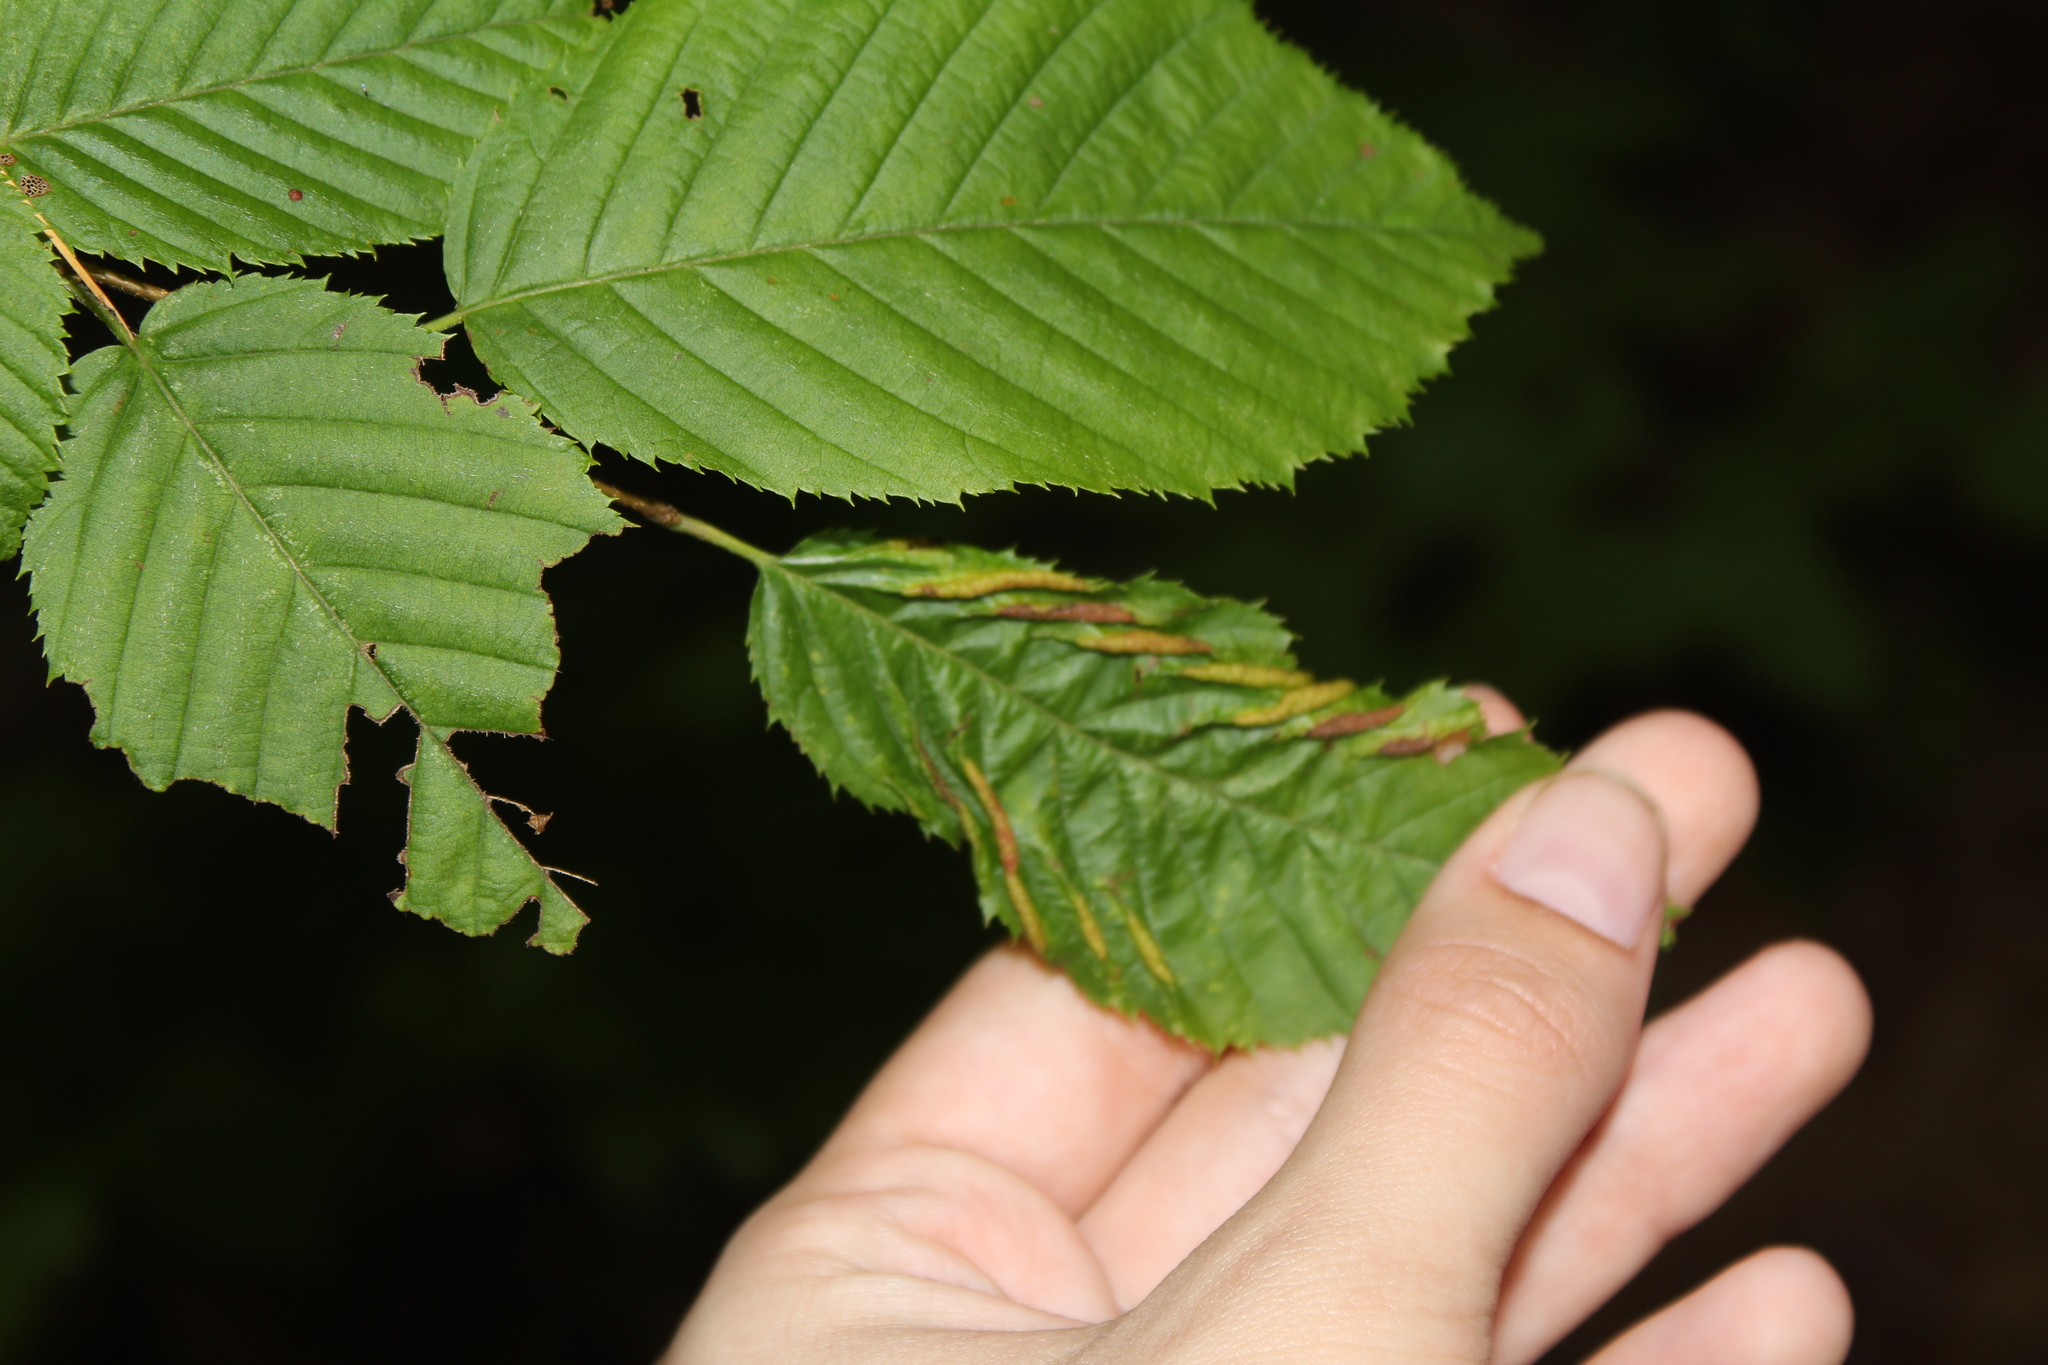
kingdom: Animalia
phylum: Arthropoda
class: Insecta
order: Diptera
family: Cecidomyiidae
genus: Dasineura
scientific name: Dasineura pudibunda
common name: Hornbeam leaf gall midge
